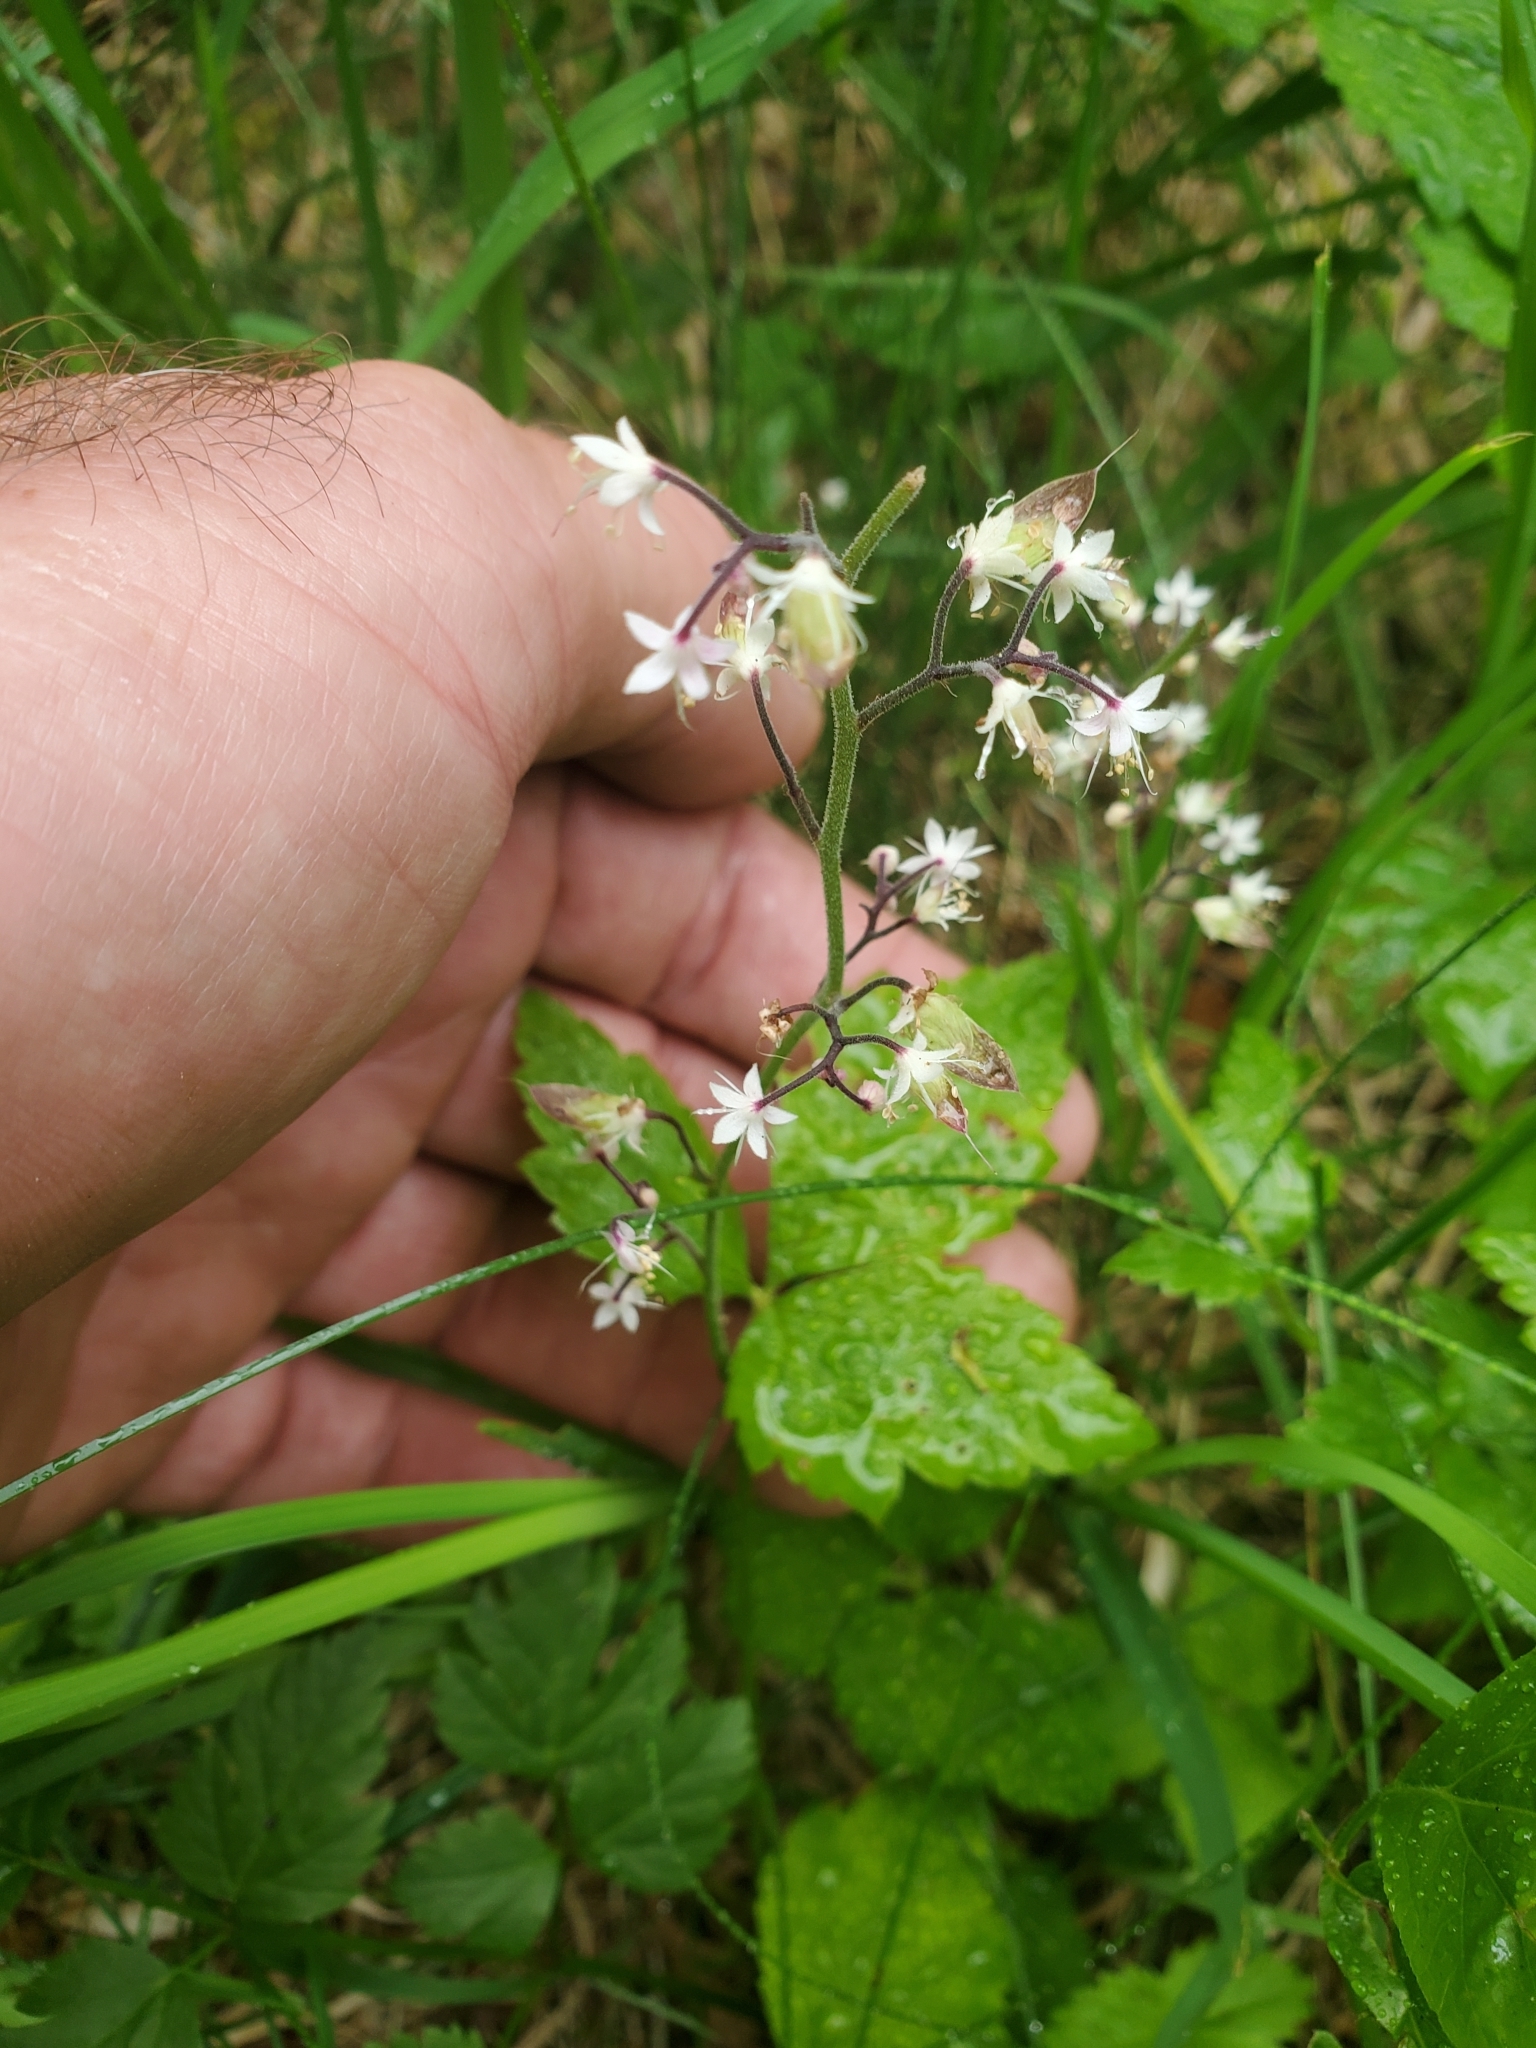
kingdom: Plantae
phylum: Tracheophyta
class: Magnoliopsida
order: Saxifragales
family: Saxifragaceae
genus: Tiarella
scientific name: Tiarella trifoliata
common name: Sugar-scoop
